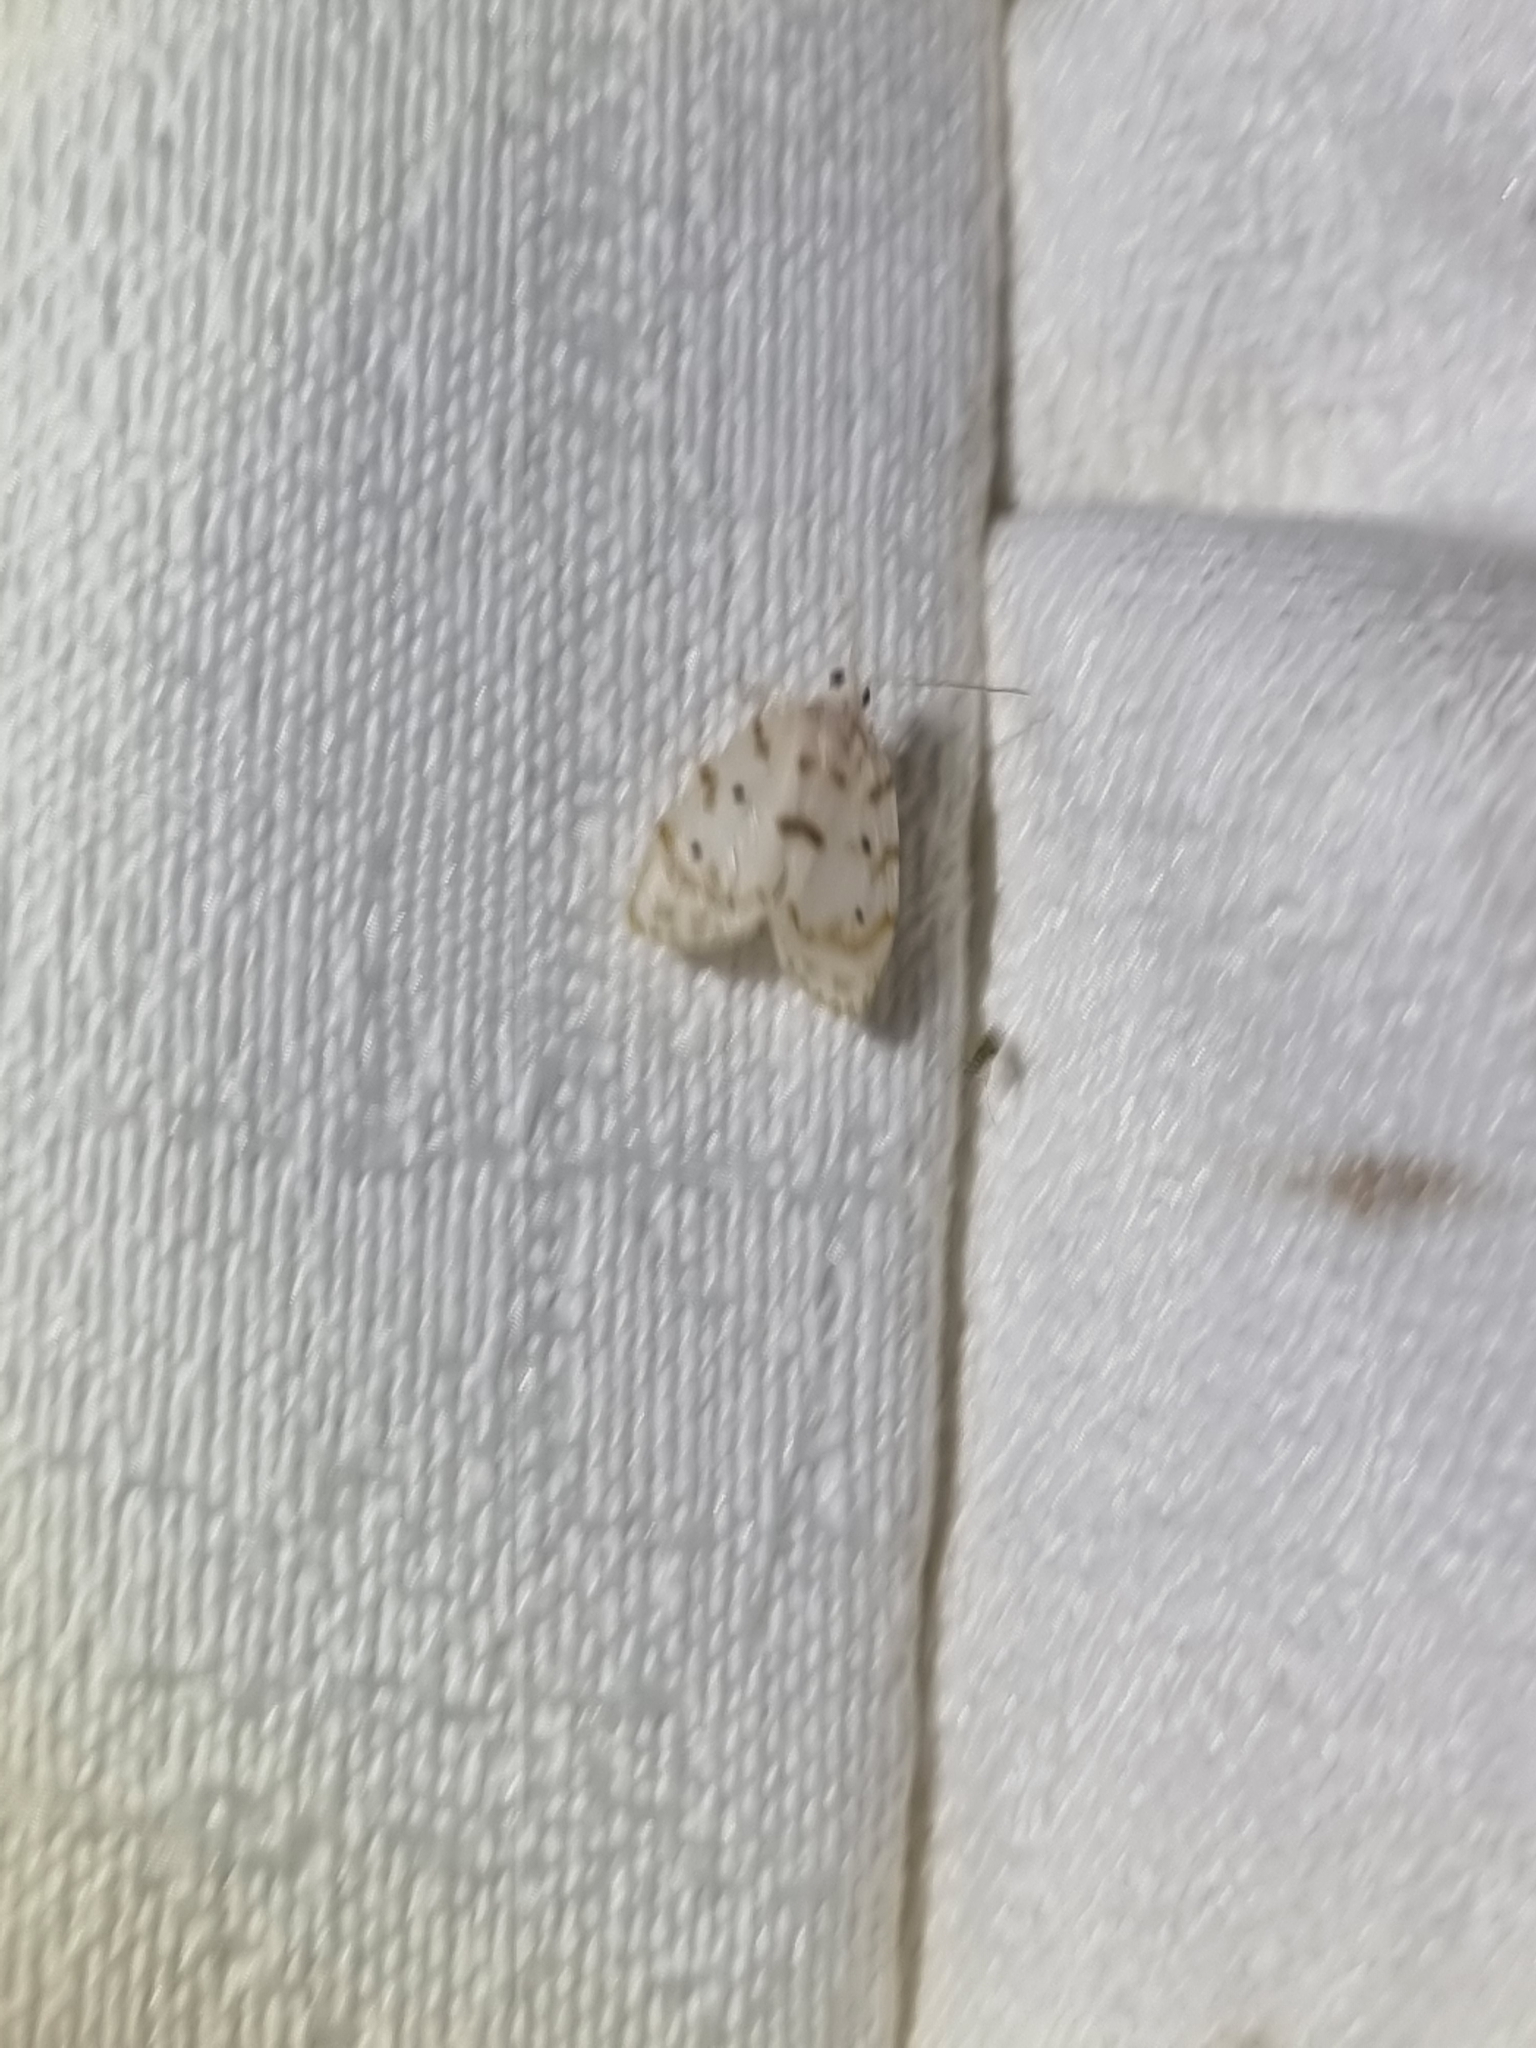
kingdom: Animalia
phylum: Arthropoda
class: Insecta
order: Lepidoptera
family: Erebidae
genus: Schistophleps
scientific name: Schistophleps albida
